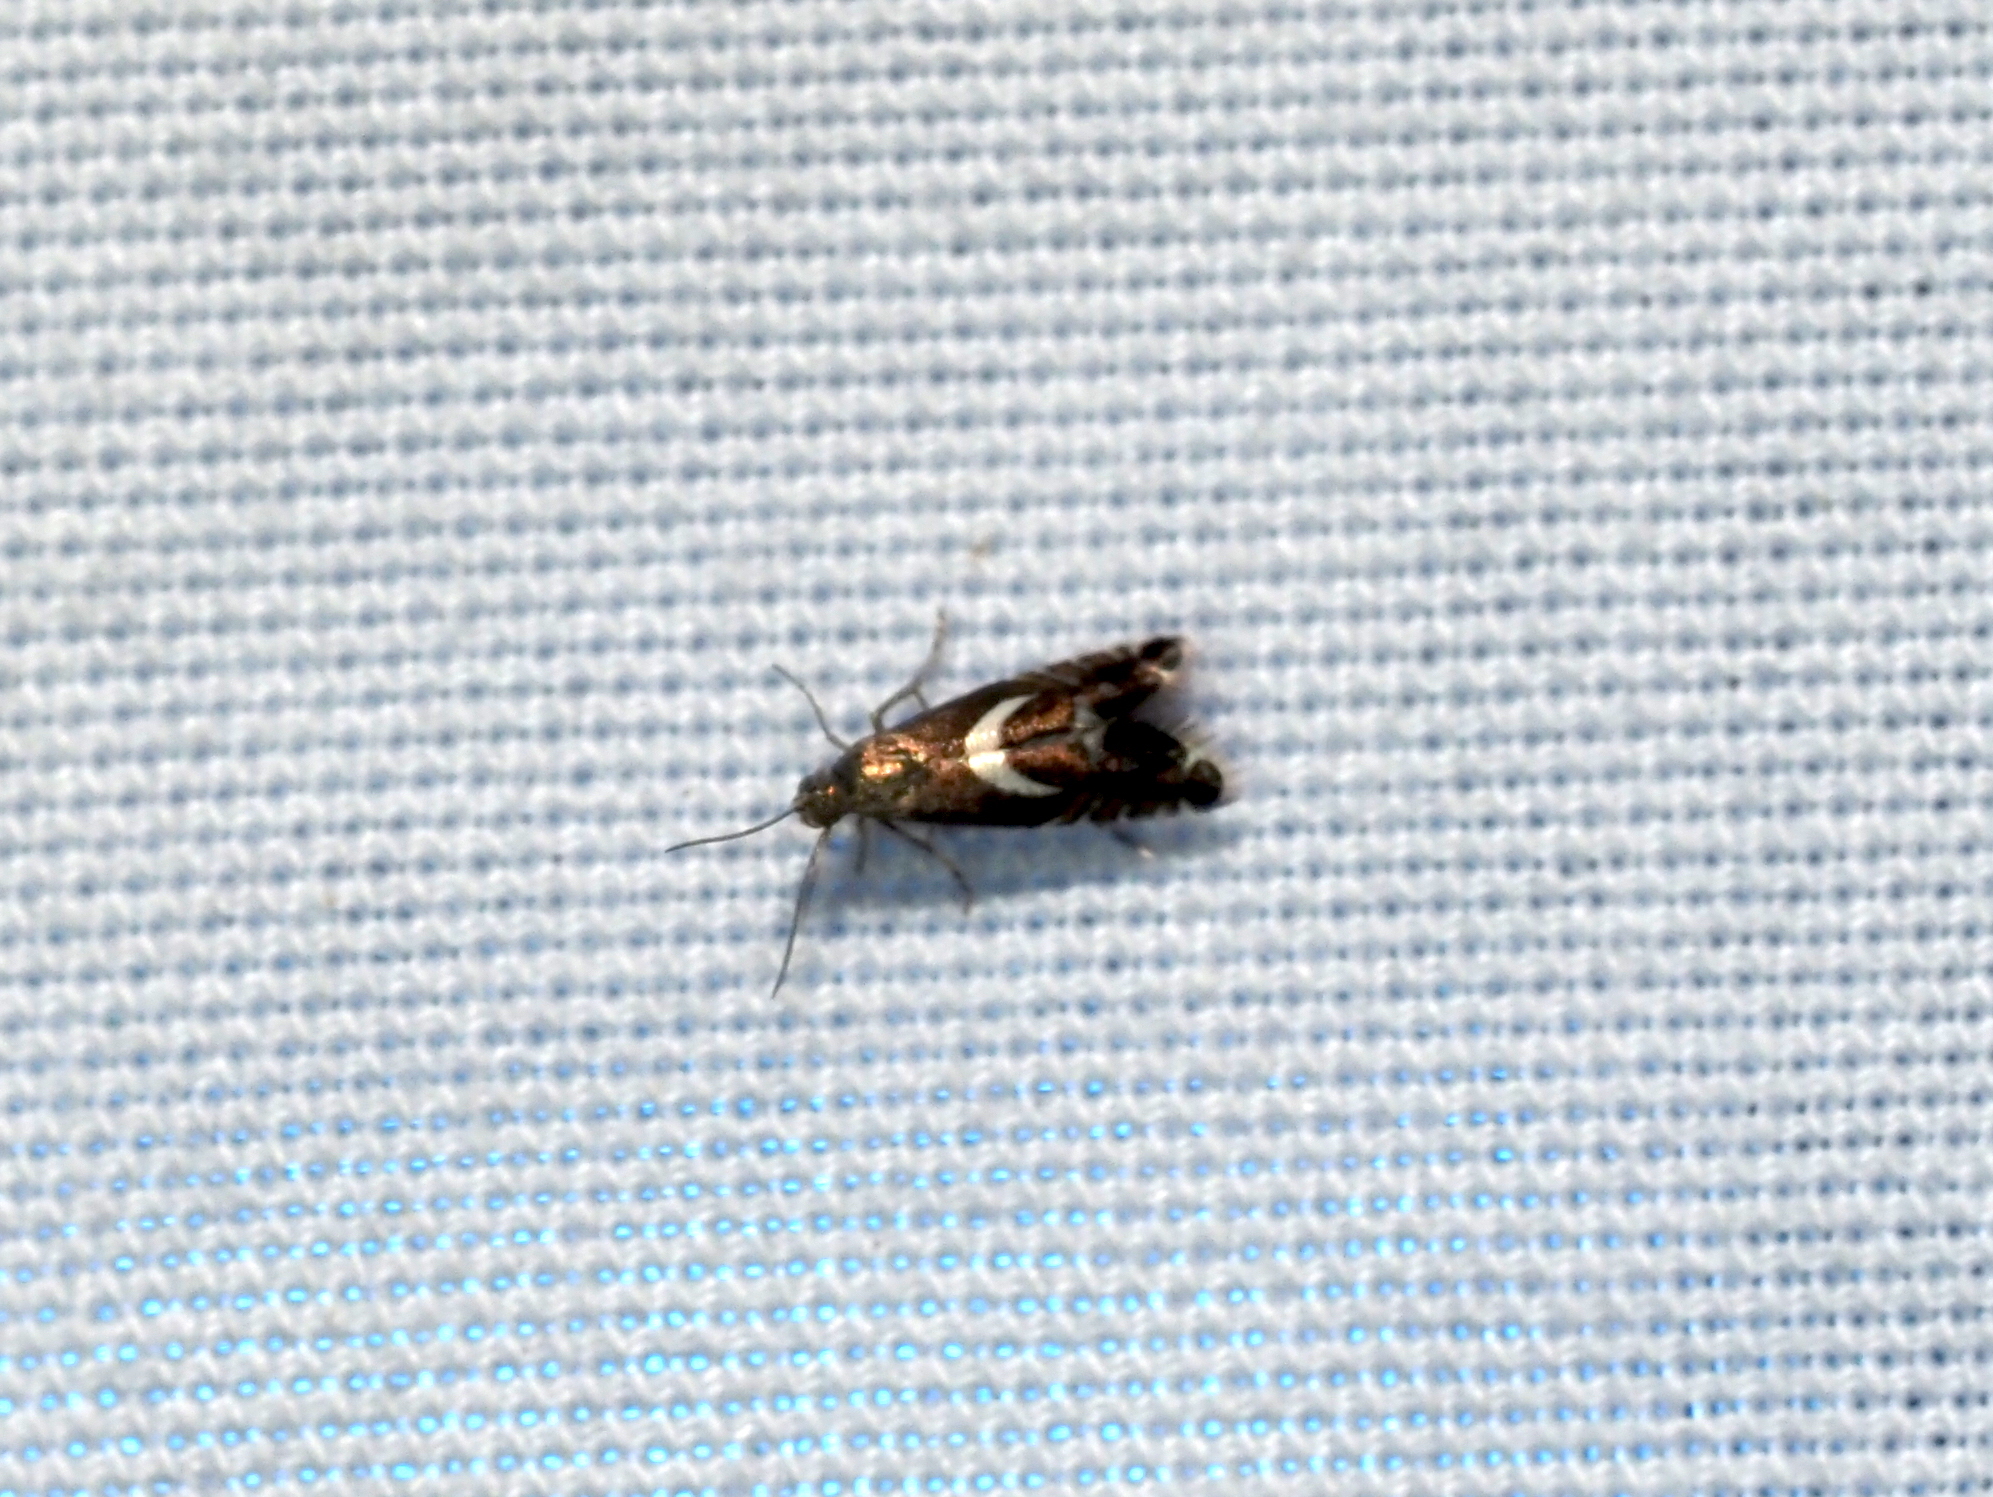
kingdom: Animalia
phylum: Arthropoda
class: Insecta
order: Lepidoptera
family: Glyphipterigidae
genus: Glyphipterix
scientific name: Glyphipterix Diploschizia impigritella
